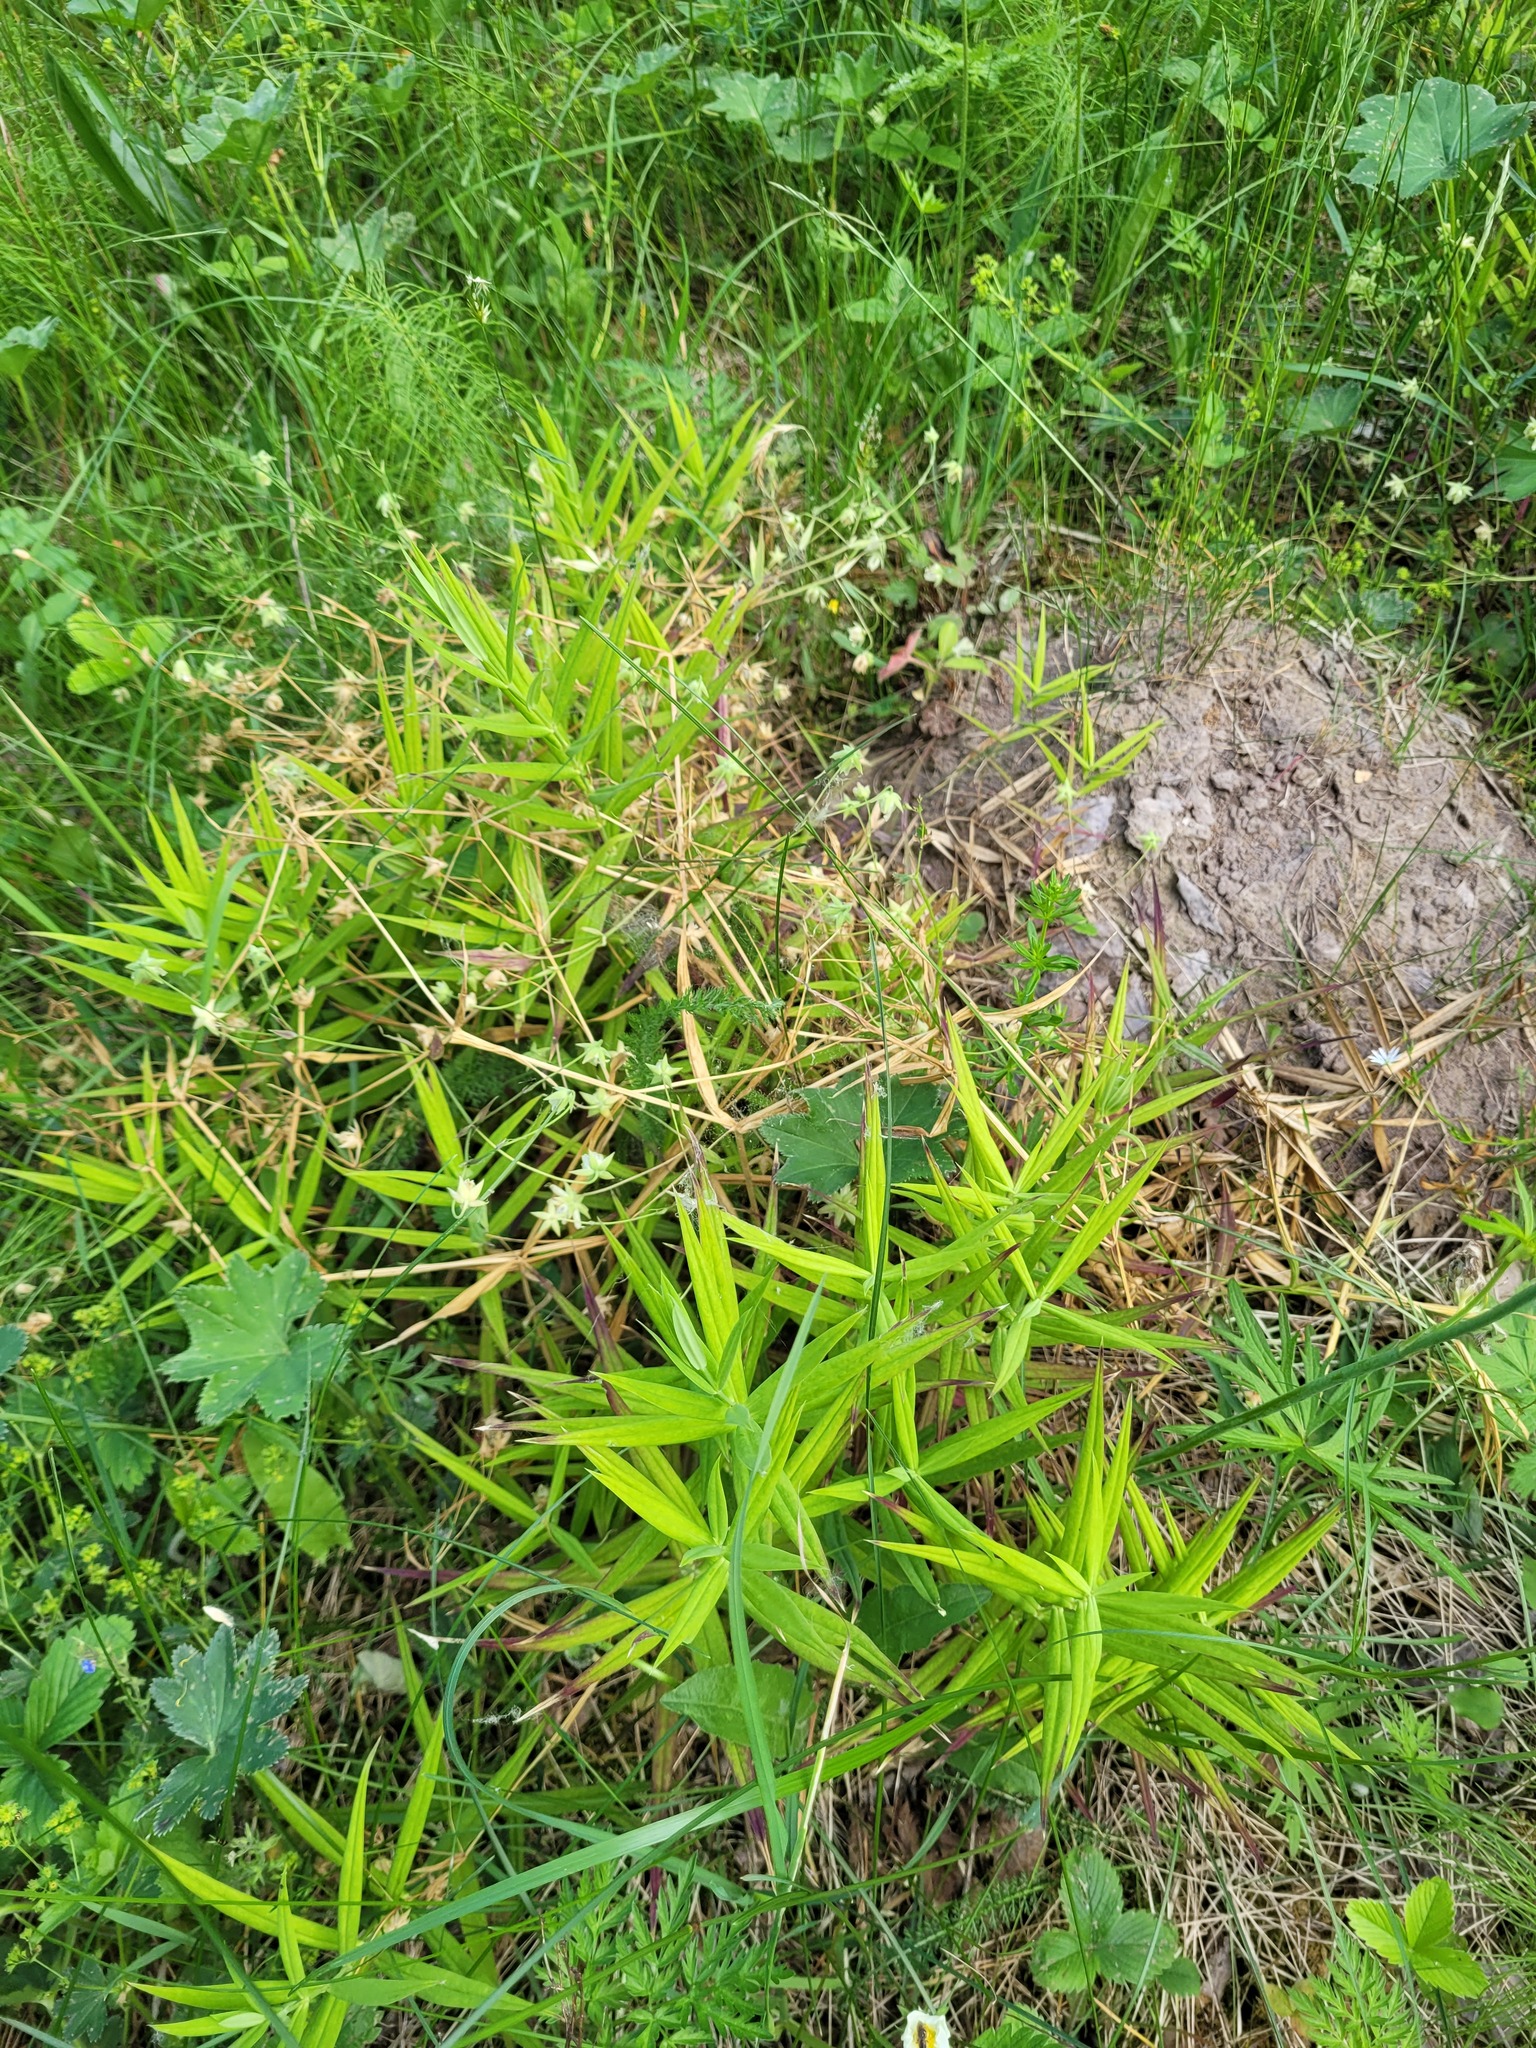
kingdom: Plantae
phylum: Tracheophyta
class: Magnoliopsida
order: Caryophyllales
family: Caryophyllaceae
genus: Rabelera
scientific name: Rabelera holostea
